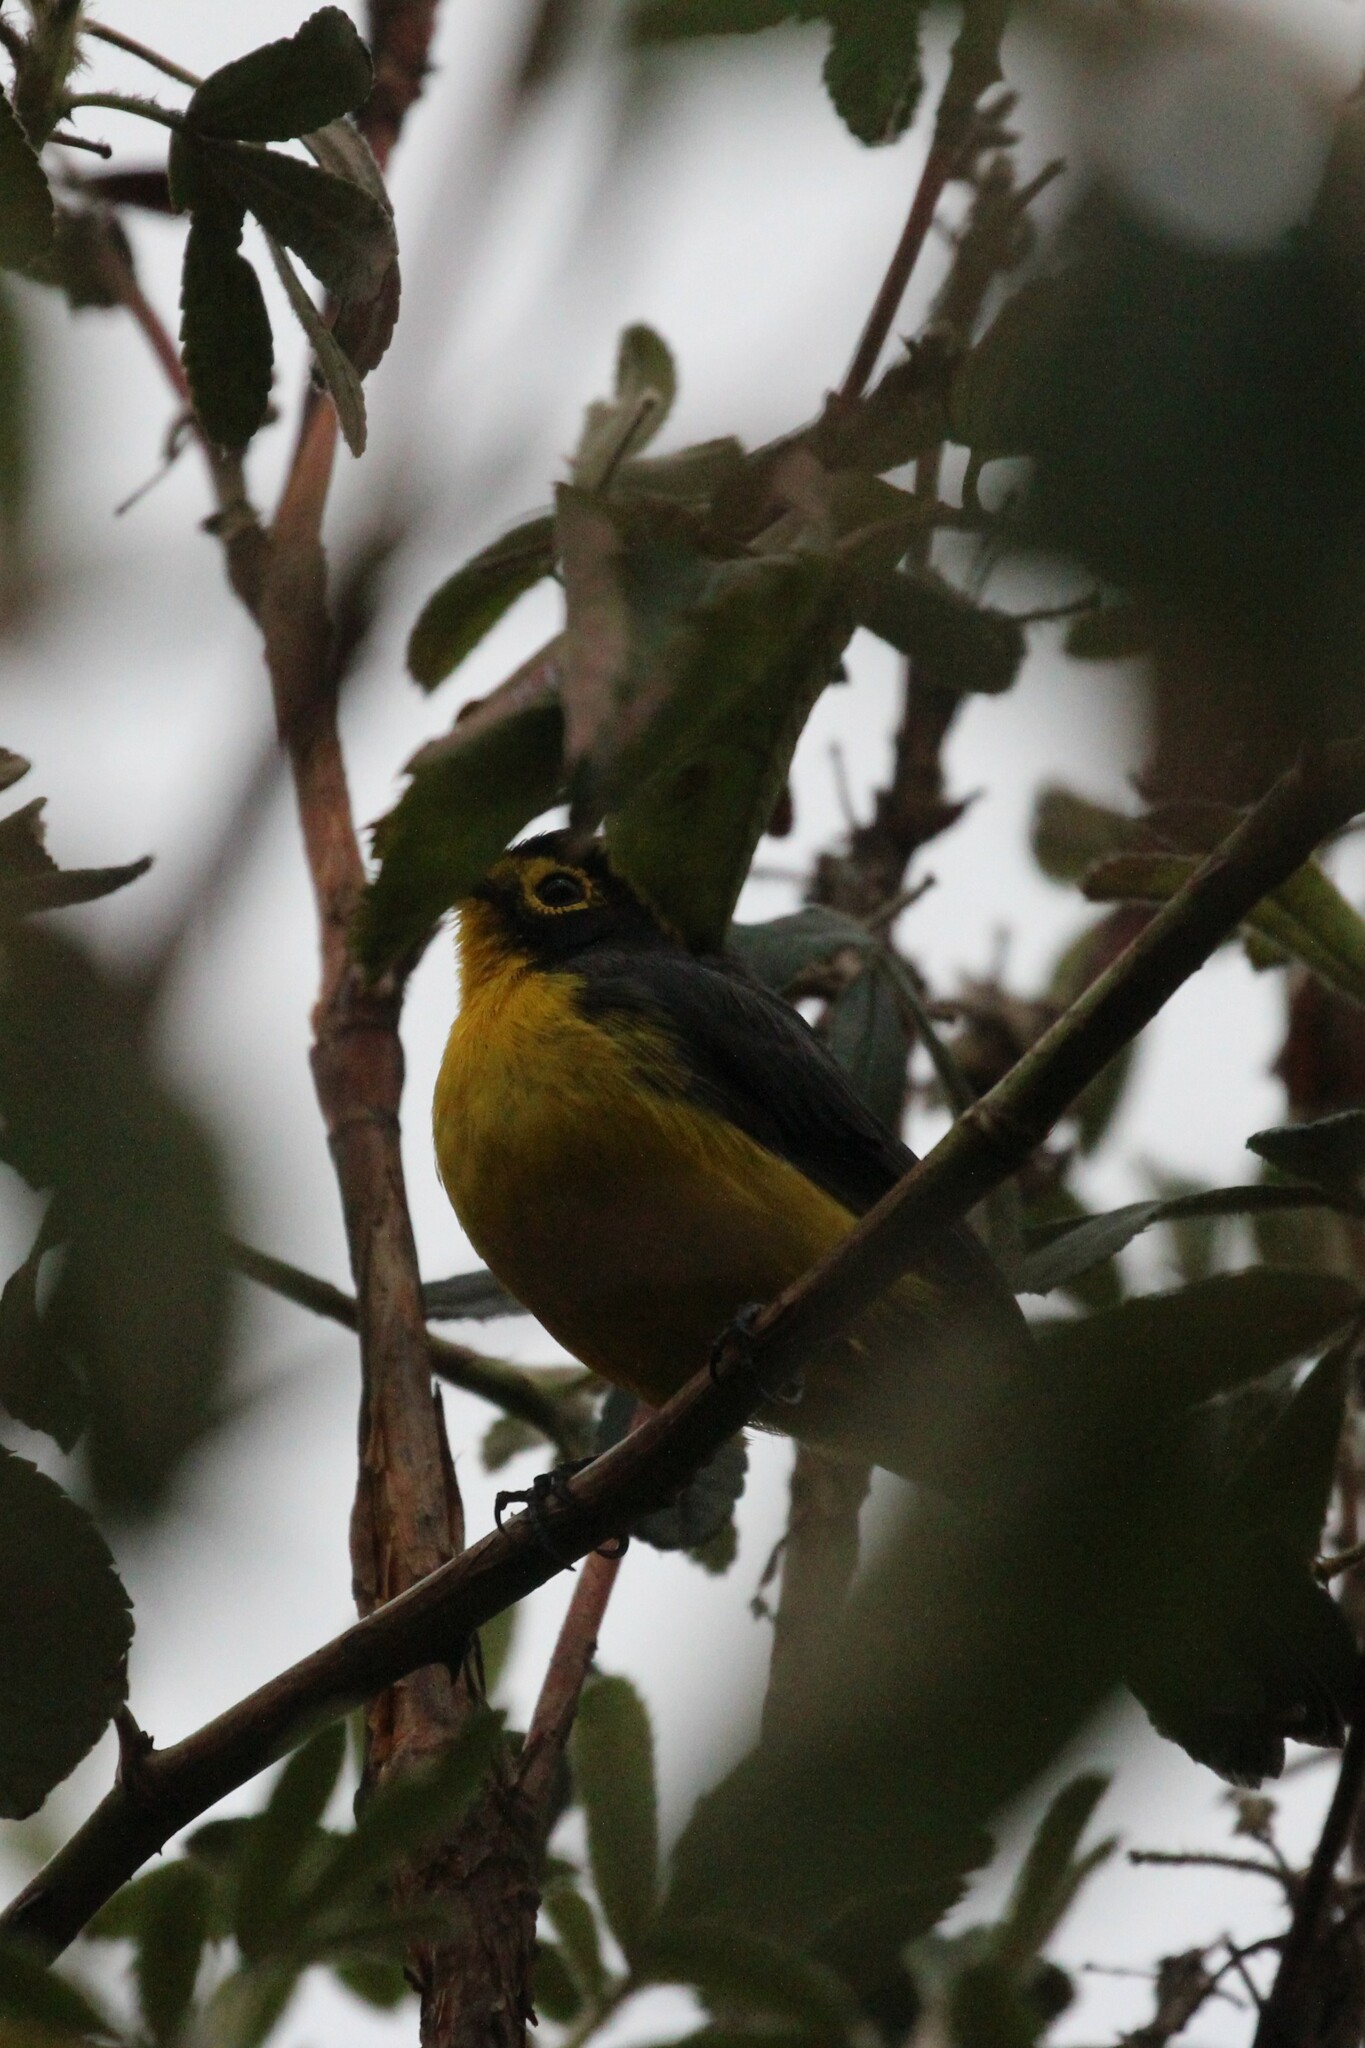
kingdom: Animalia
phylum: Chordata
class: Aves
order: Passeriformes
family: Parulidae
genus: Myioborus
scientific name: Myioborus melanocephalus
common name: Spectacled whitestart
